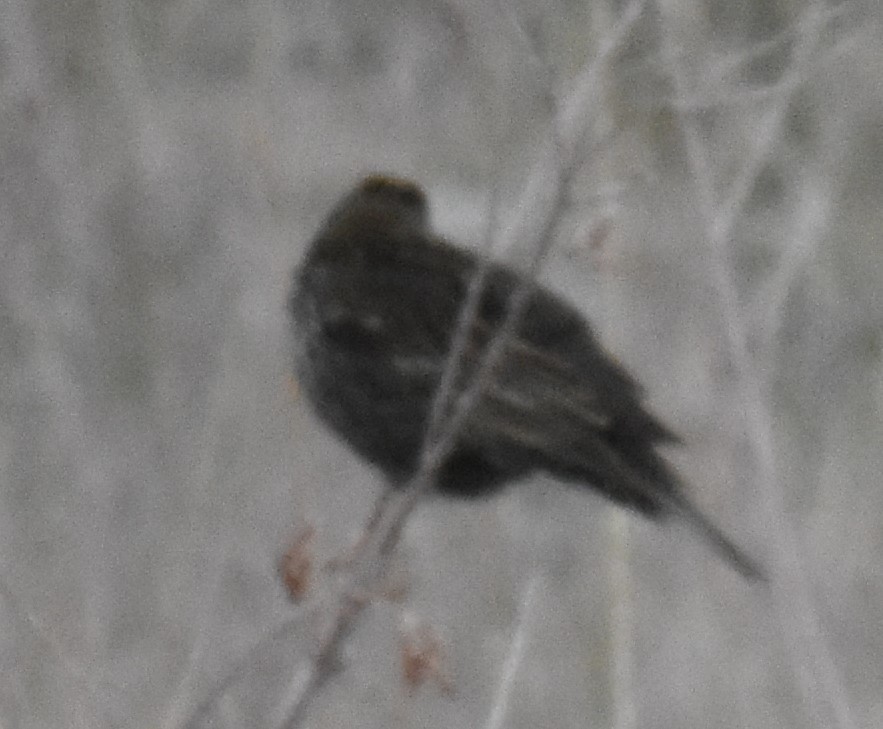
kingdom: Animalia
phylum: Chordata
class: Aves
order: Passeriformes
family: Icteridae
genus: Agelaius
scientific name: Agelaius phoeniceus
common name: Red-winged blackbird
